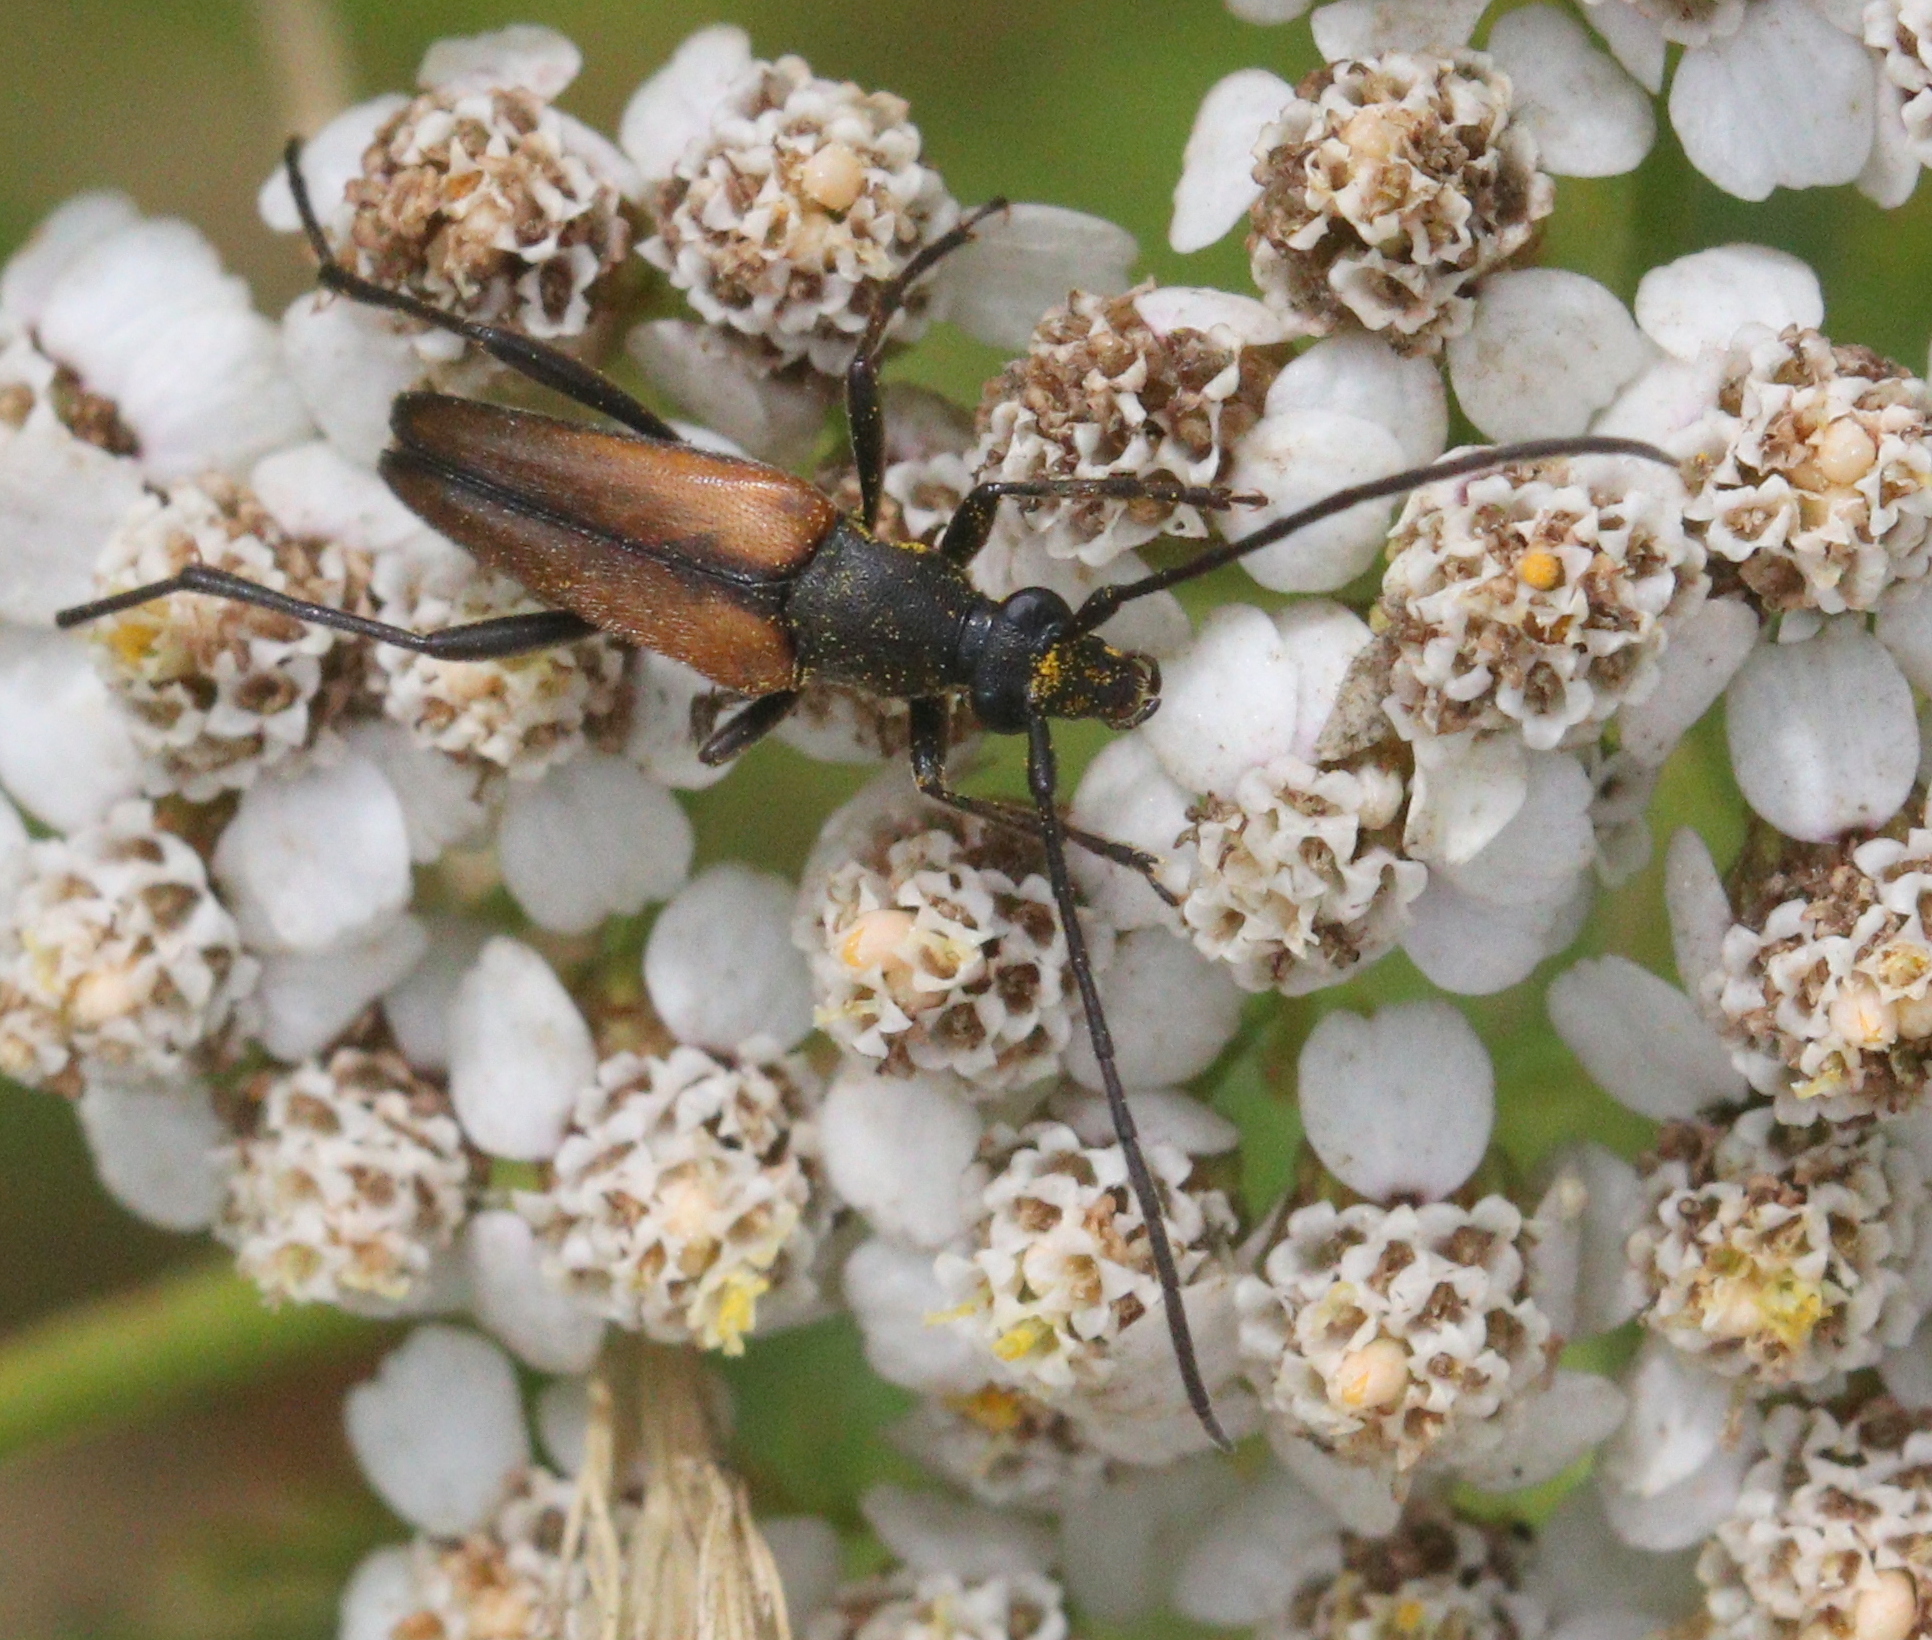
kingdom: Animalia
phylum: Arthropoda
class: Insecta
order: Coleoptera
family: Cerambycidae
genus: Stenurella
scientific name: Stenurella melanura
